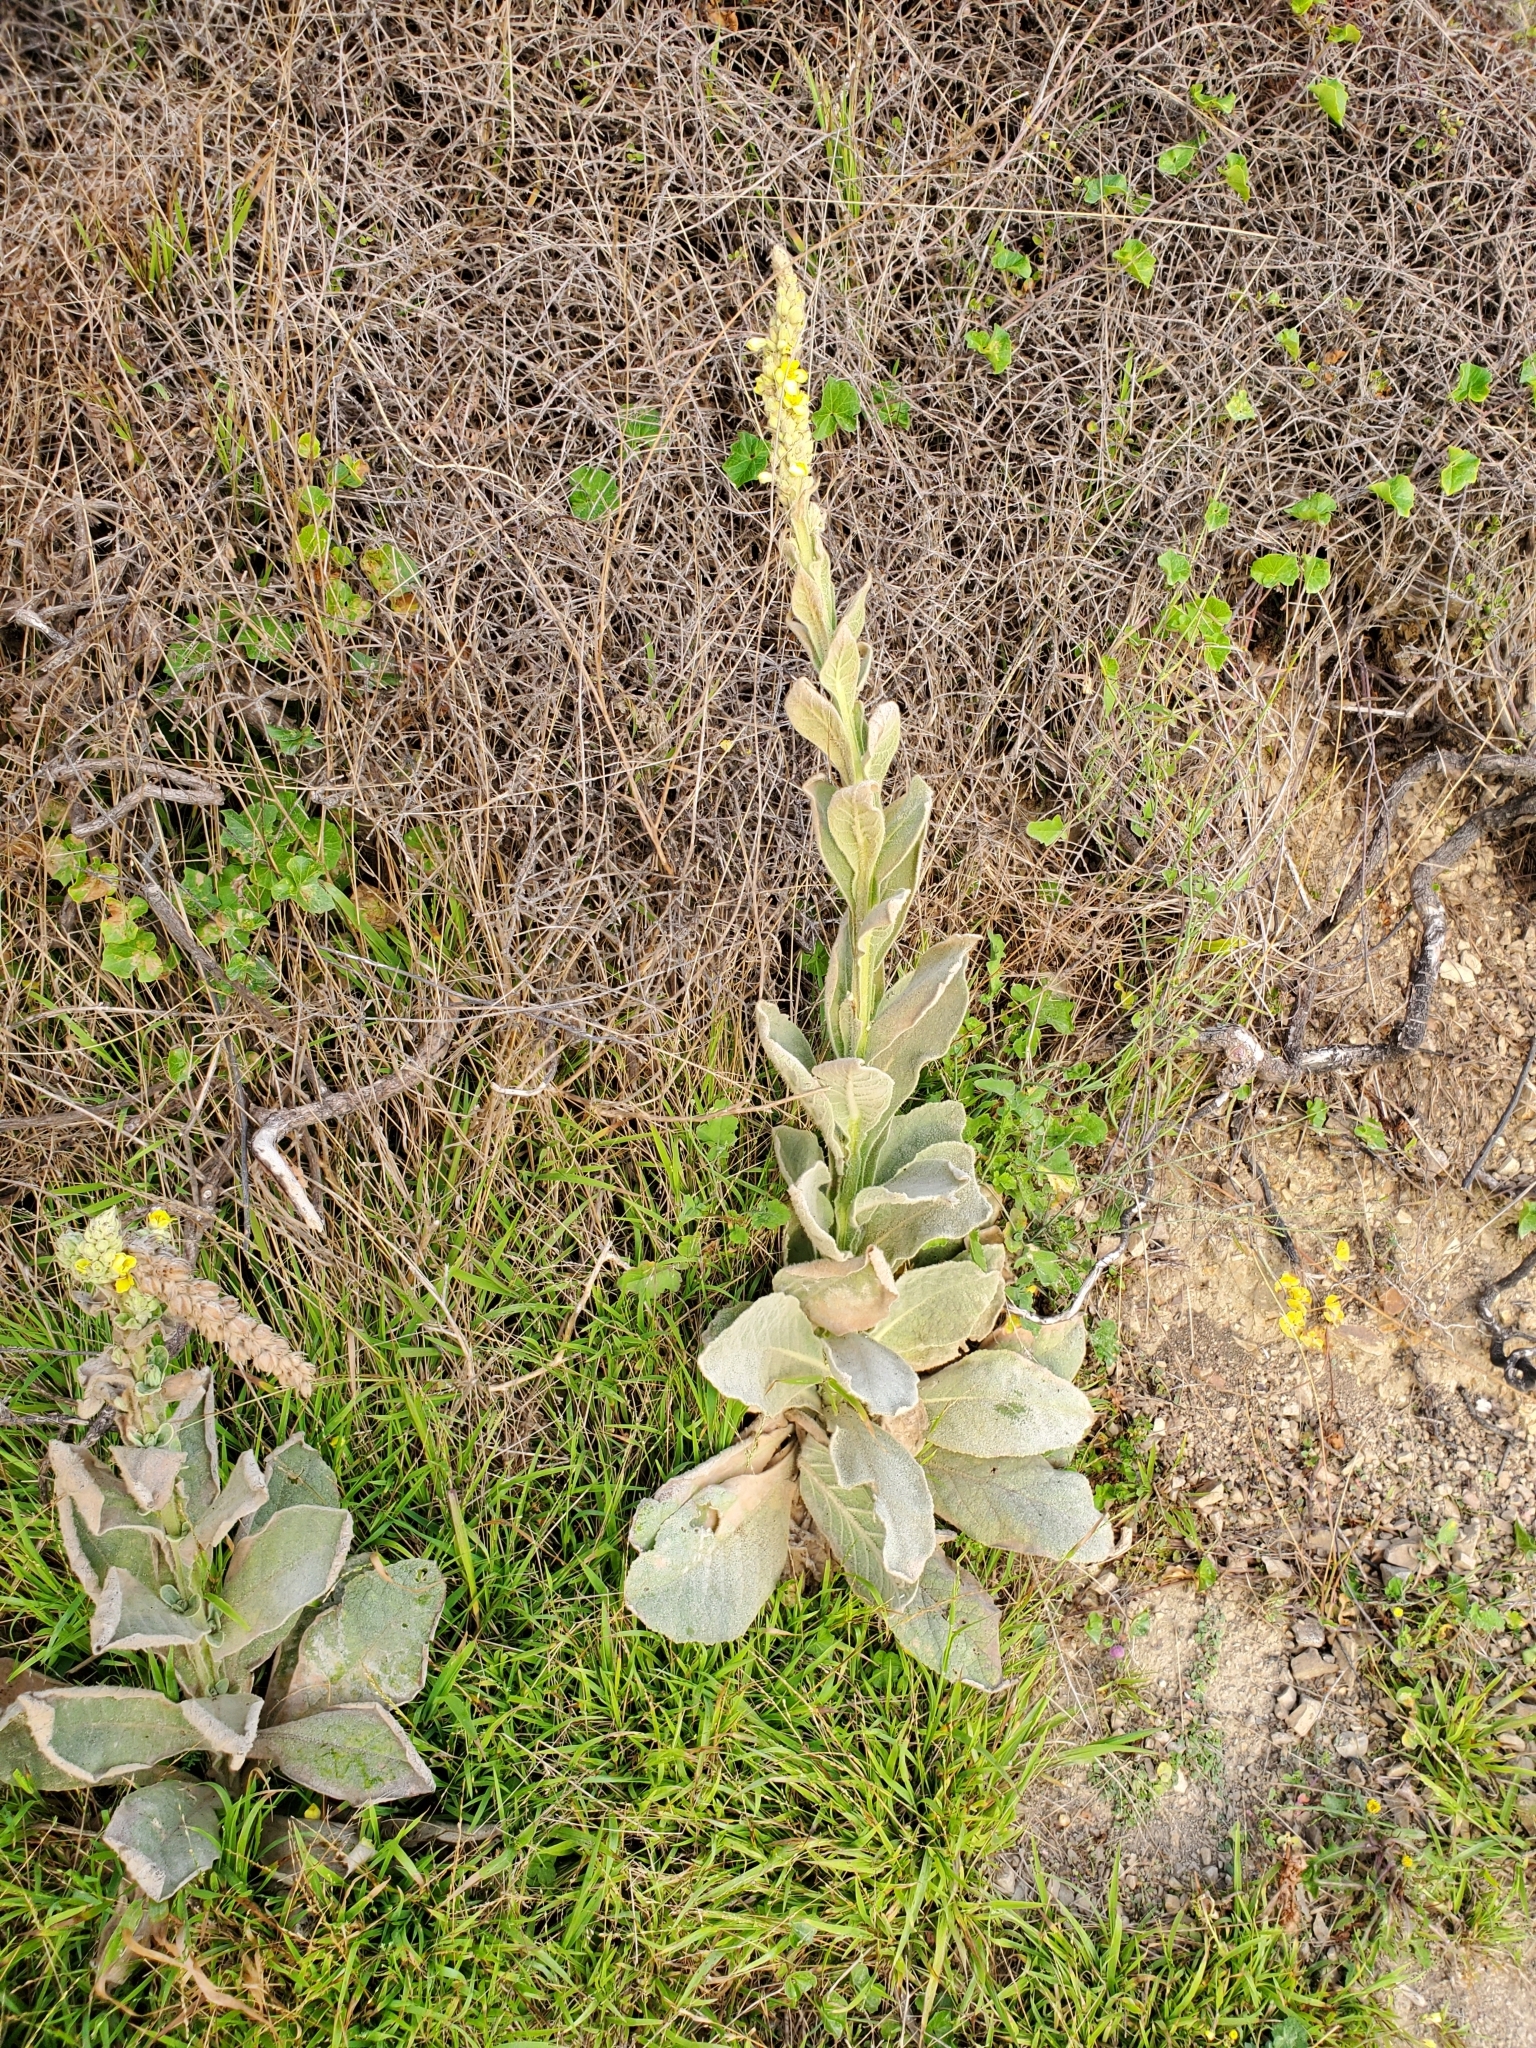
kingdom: Plantae
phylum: Tracheophyta
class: Magnoliopsida
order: Lamiales
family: Scrophulariaceae
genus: Verbascum
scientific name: Verbascum thapsus
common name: Common mullein
